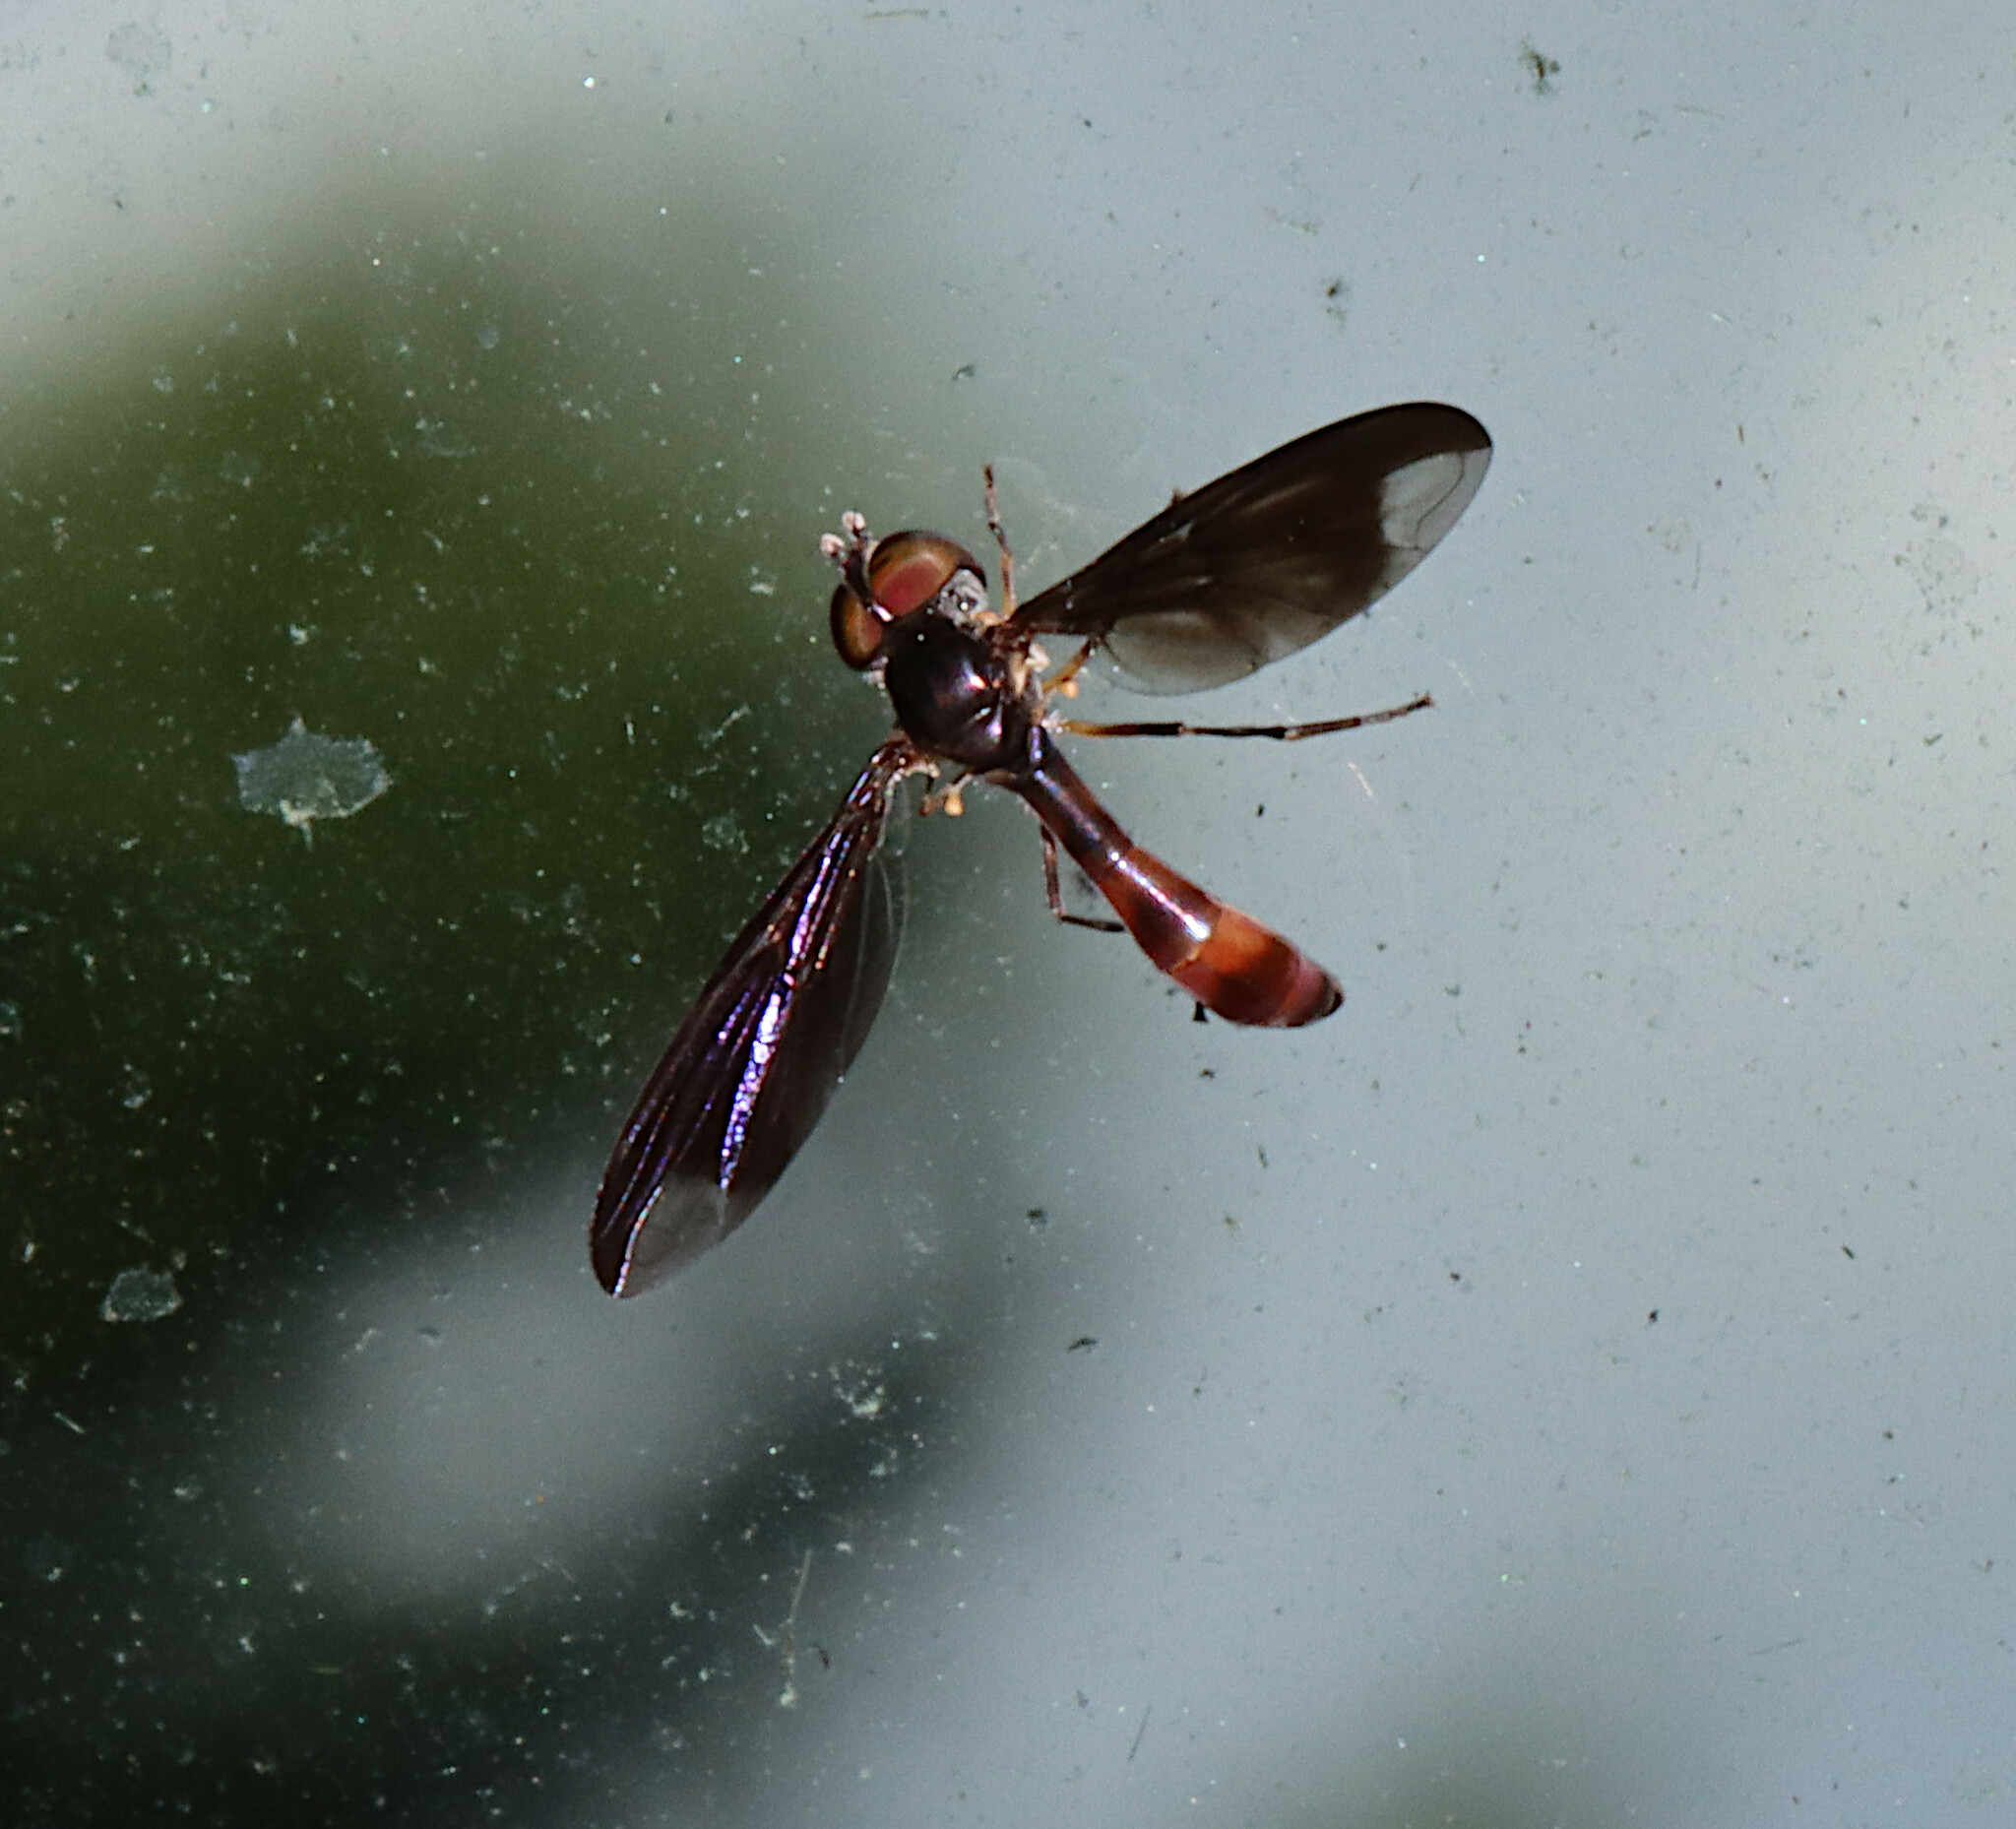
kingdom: Animalia
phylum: Arthropoda
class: Insecta
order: Diptera
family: Syrphidae
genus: Ocyptamus
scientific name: Ocyptamus fuscipennis
